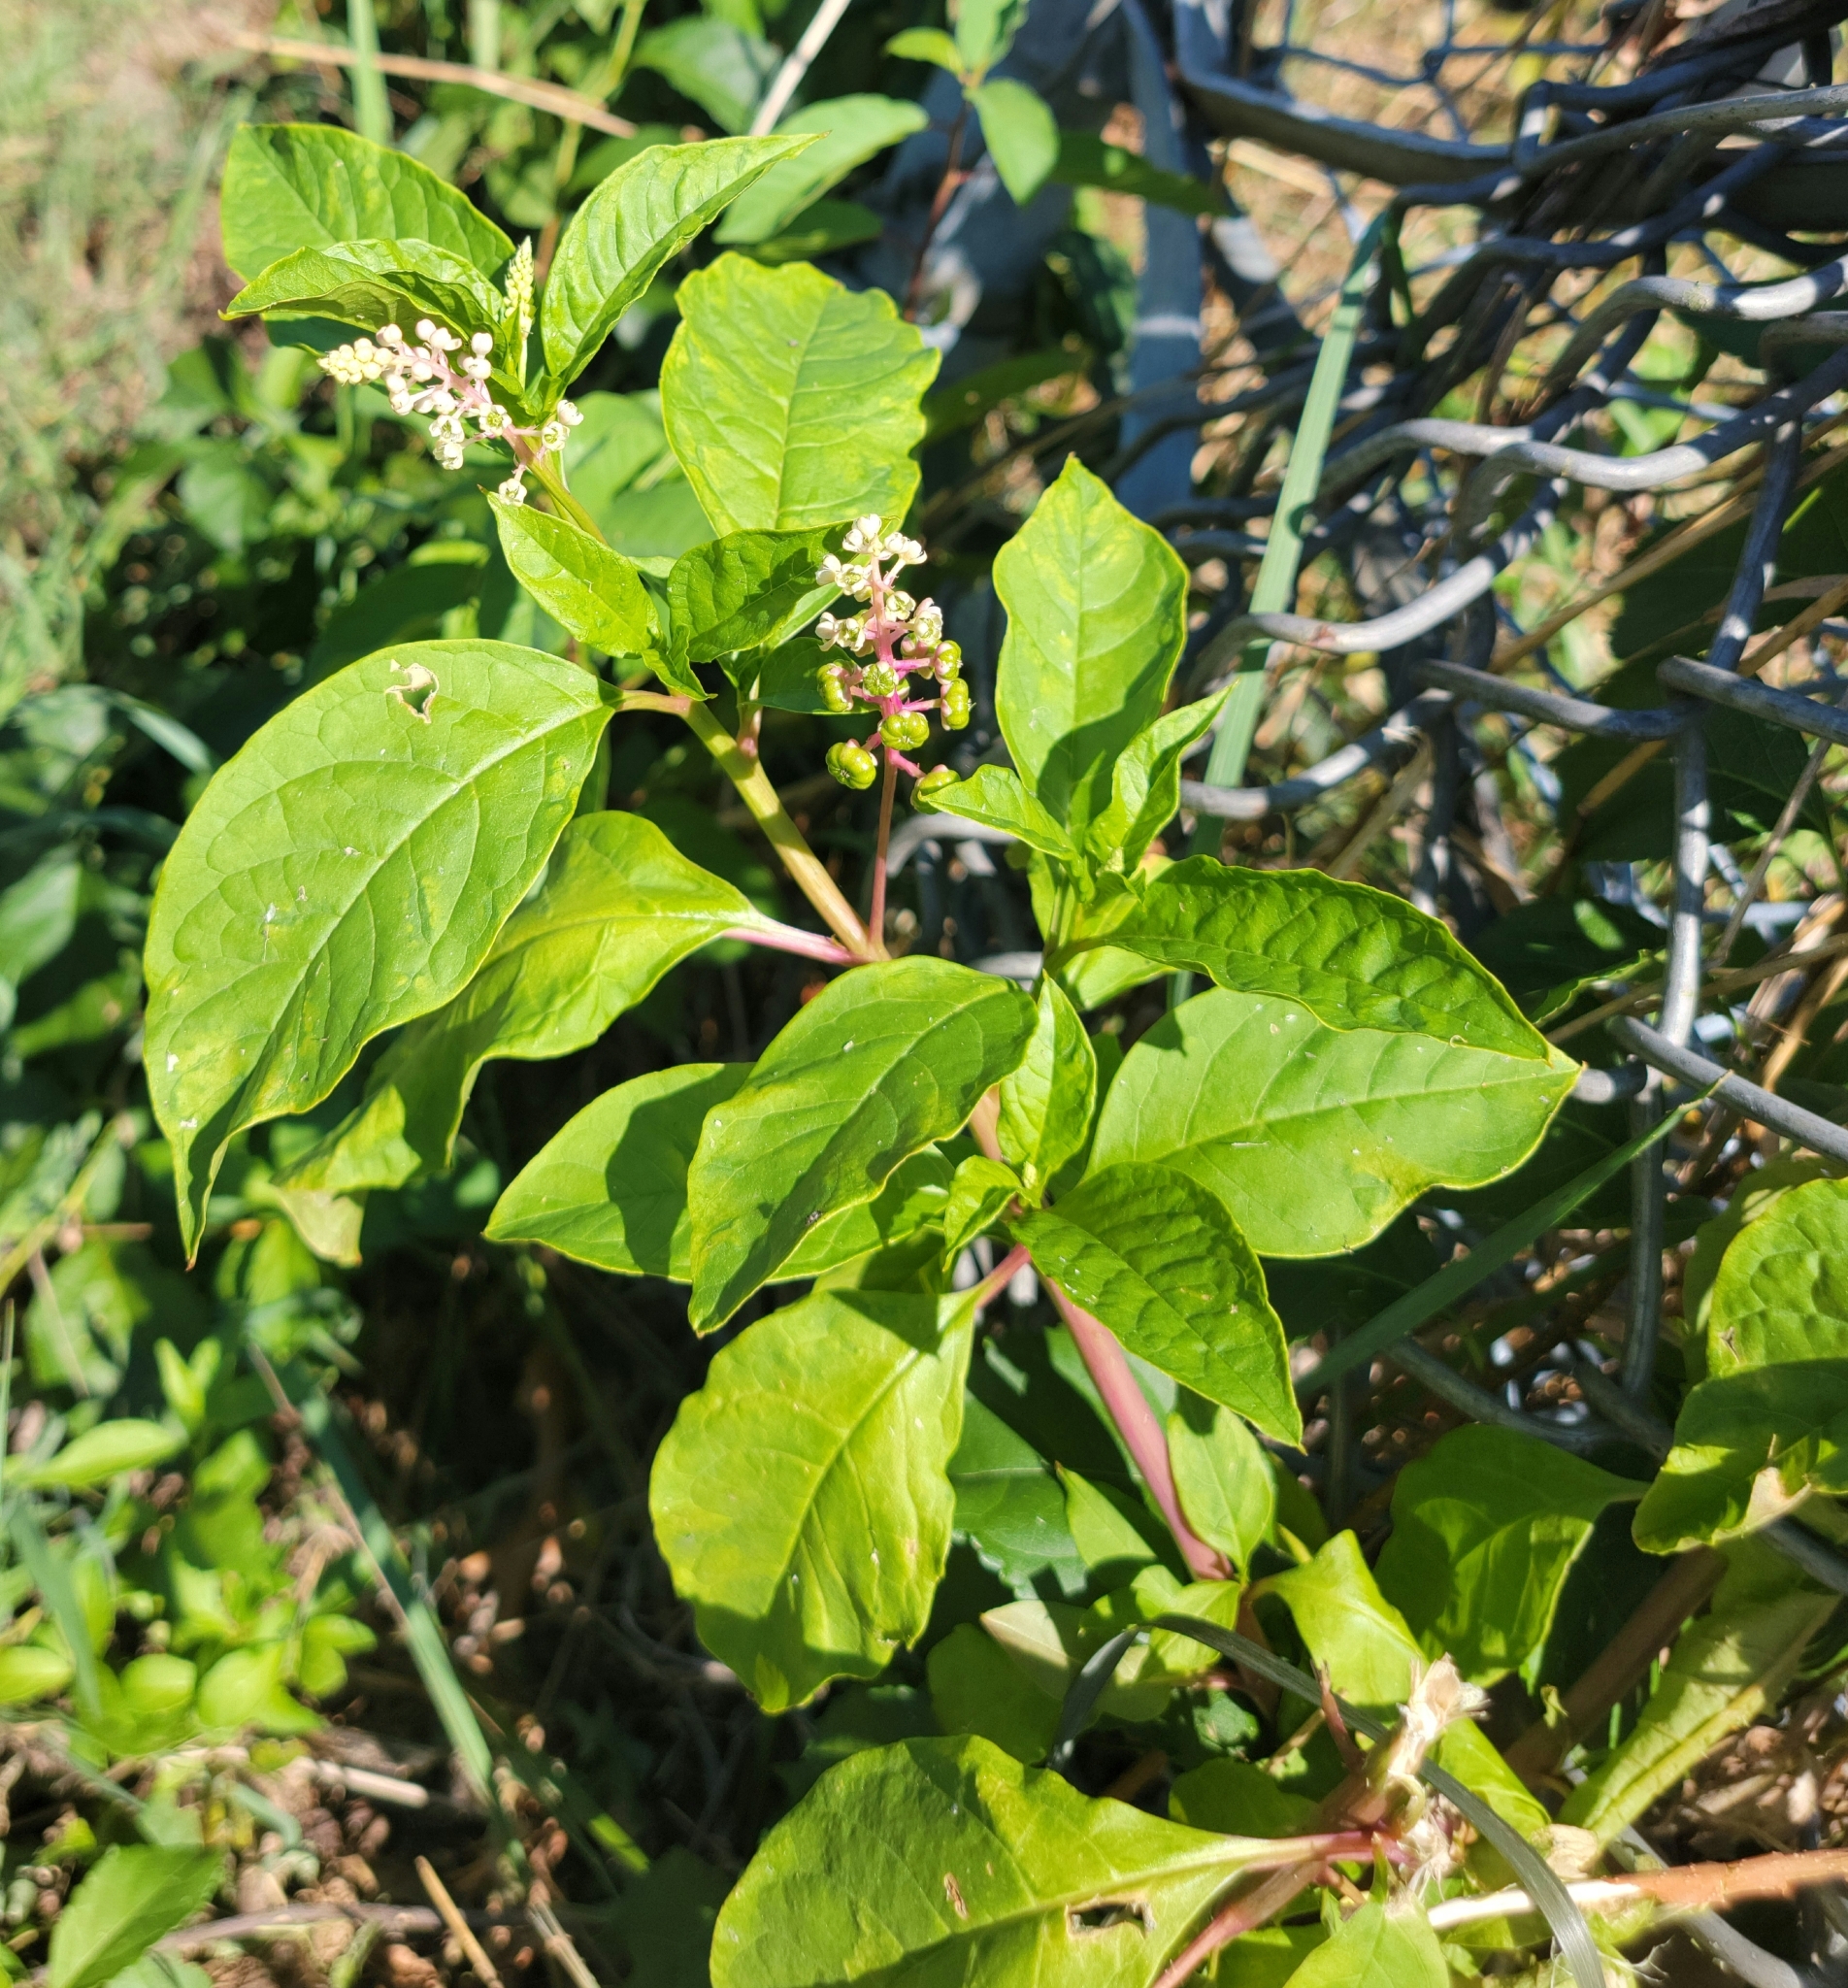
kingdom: Plantae
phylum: Tracheophyta
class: Magnoliopsida
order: Caryophyllales
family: Phytolaccaceae
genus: Phytolacca
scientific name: Phytolacca americana
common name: American pokeweed
